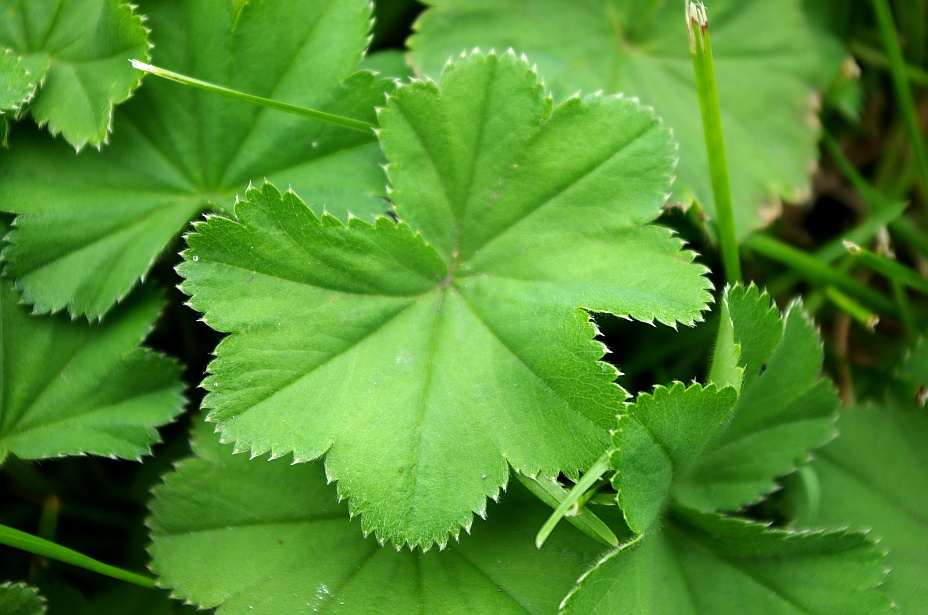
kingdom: Plantae
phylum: Tracheophyta
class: Magnoliopsida
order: Rosales
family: Rosaceae
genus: Alchemilla
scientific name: Alchemilla propinqua
